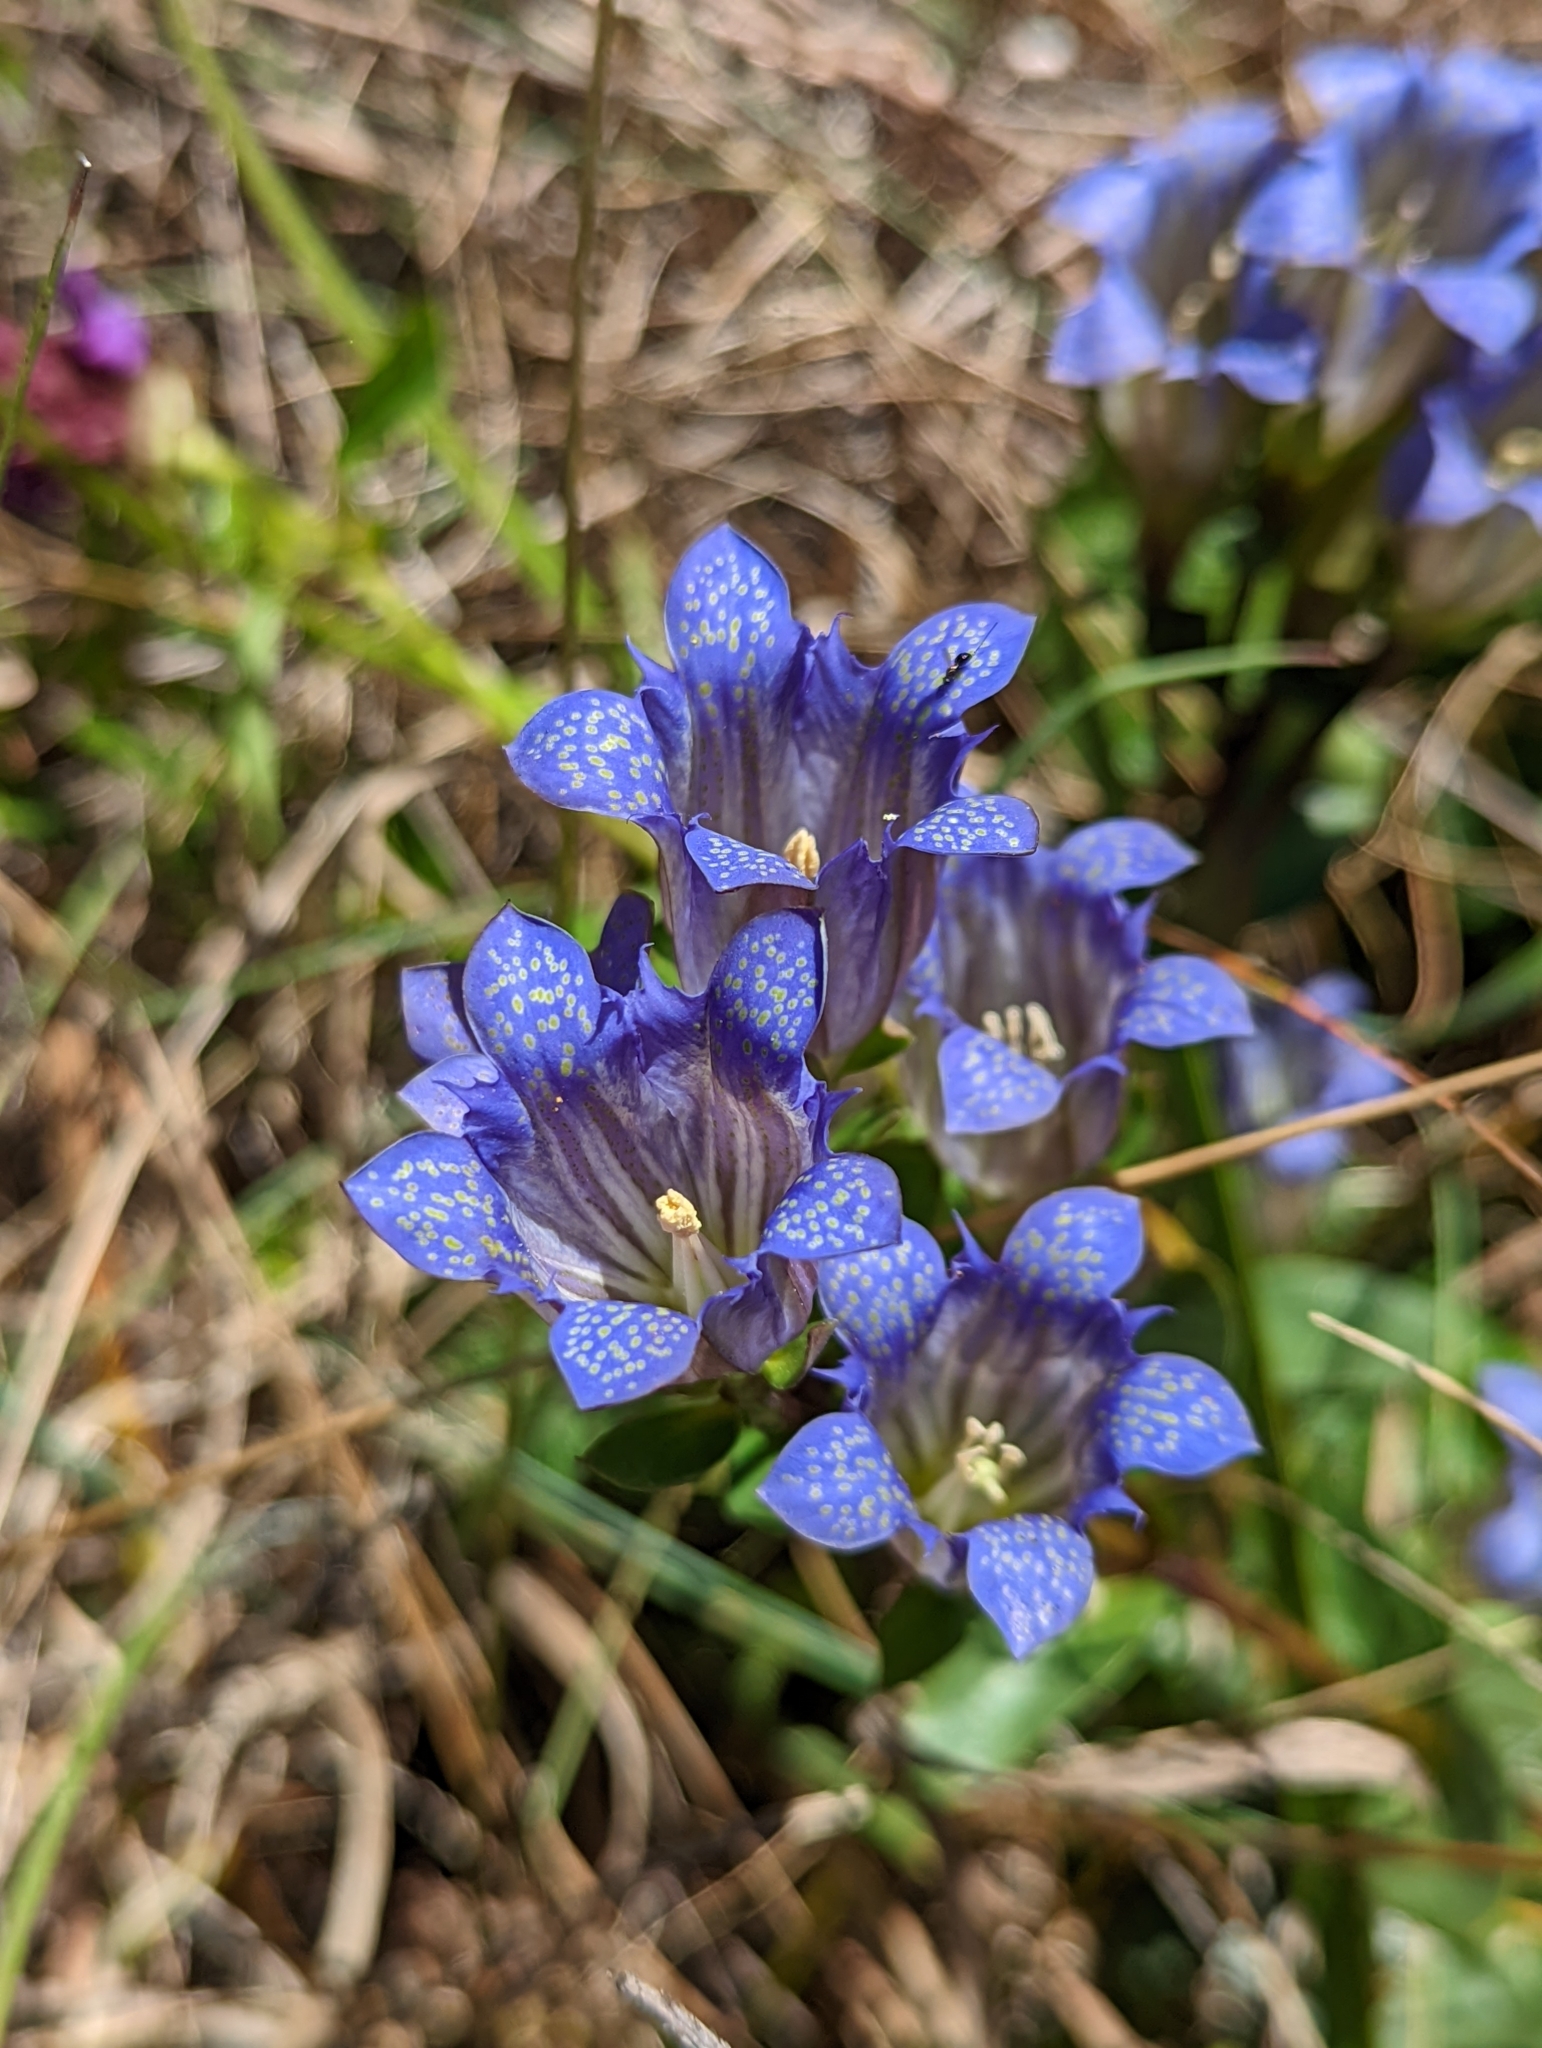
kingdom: Plantae
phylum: Tracheophyta
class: Magnoliopsida
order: Gentianales
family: Gentianaceae
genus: Gentiana
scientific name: Gentiana affinis
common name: Rocky mountain gentian
